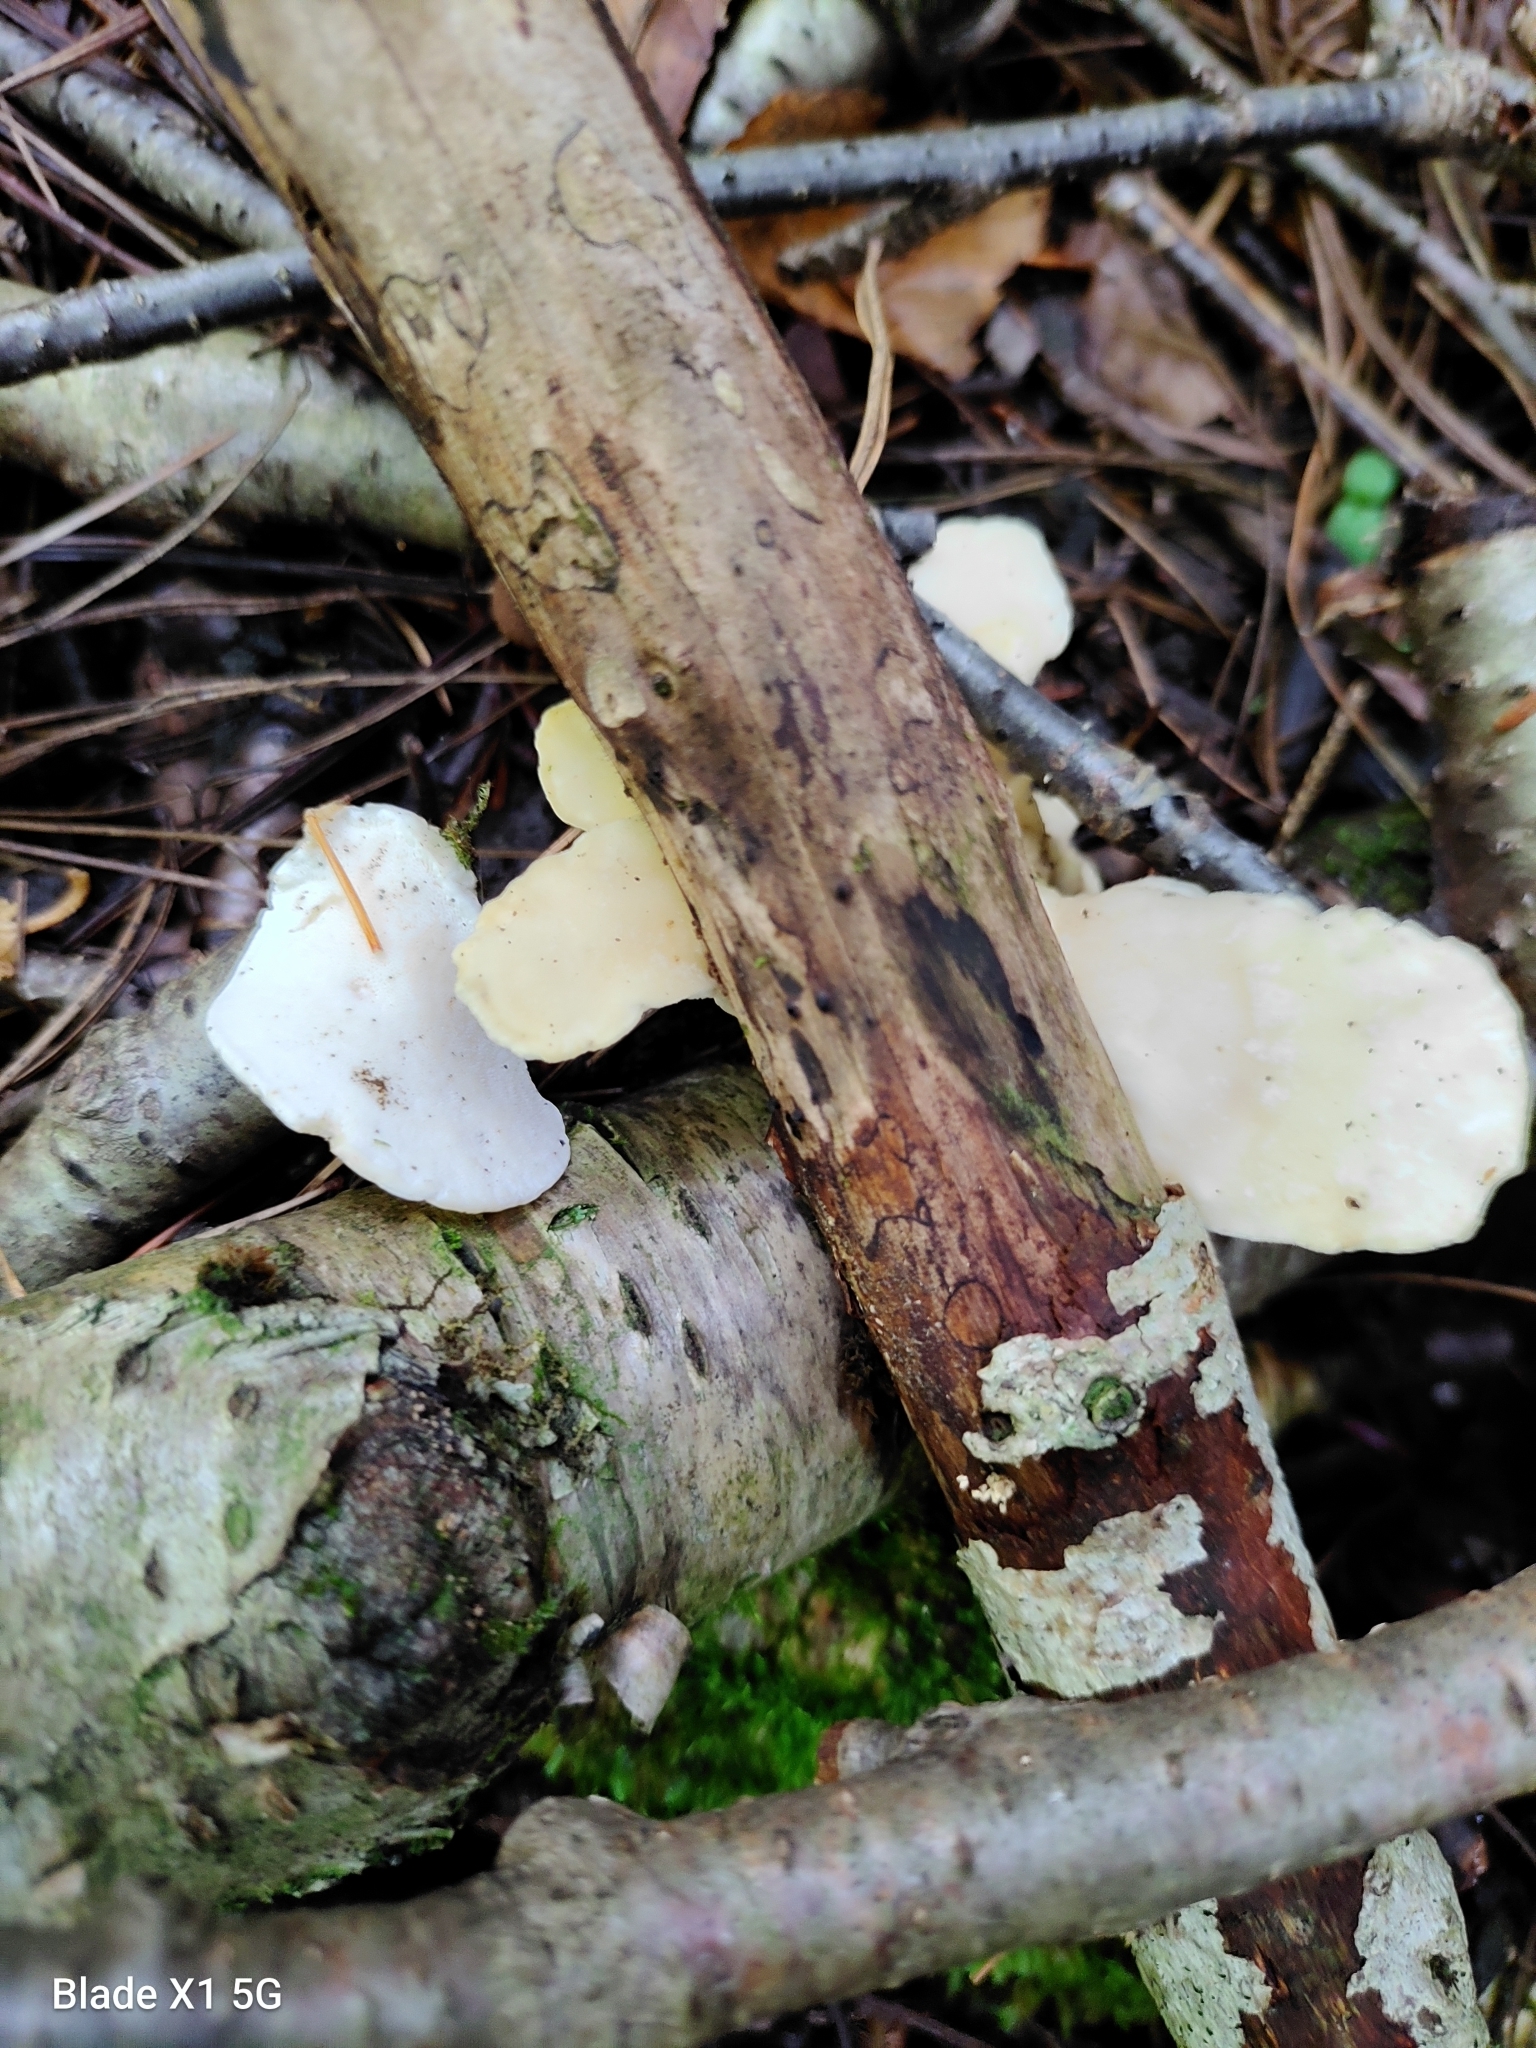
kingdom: Fungi
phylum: Basidiomycota
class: Agaricomycetes
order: Polyporales
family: Steccherinaceae
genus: Loweomyces
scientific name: Loweomyces fractipes
